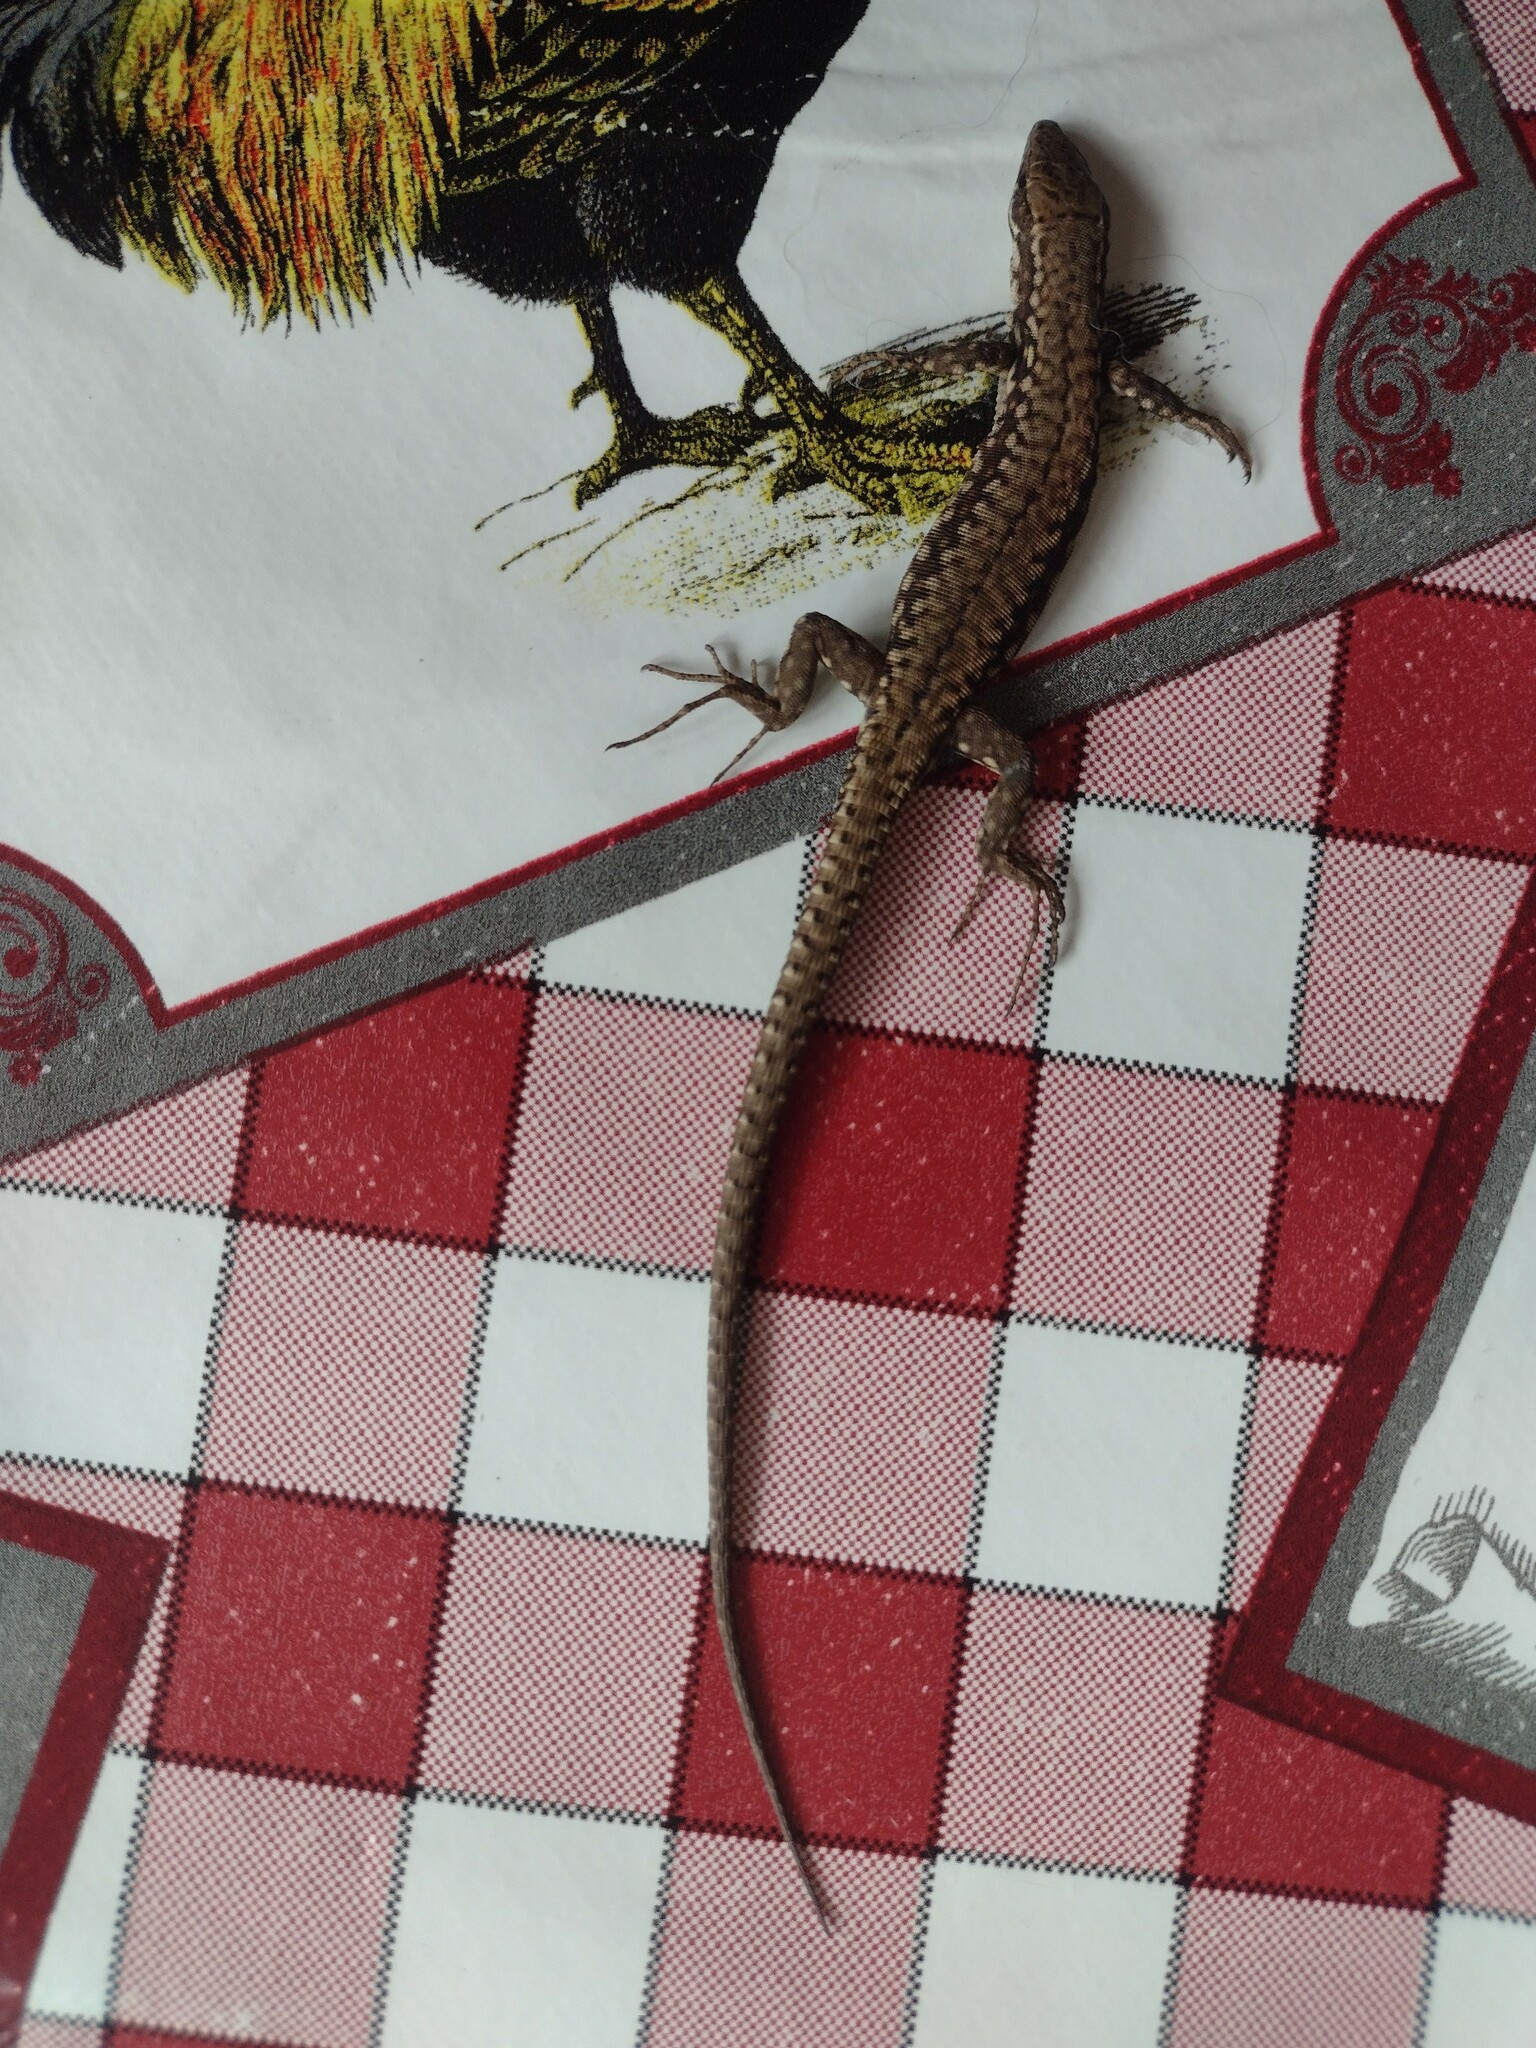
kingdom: Animalia
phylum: Chordata
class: Squamata
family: Lacertidae
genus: Podarcis
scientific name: Podarcis muralis
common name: Common wall lizard
